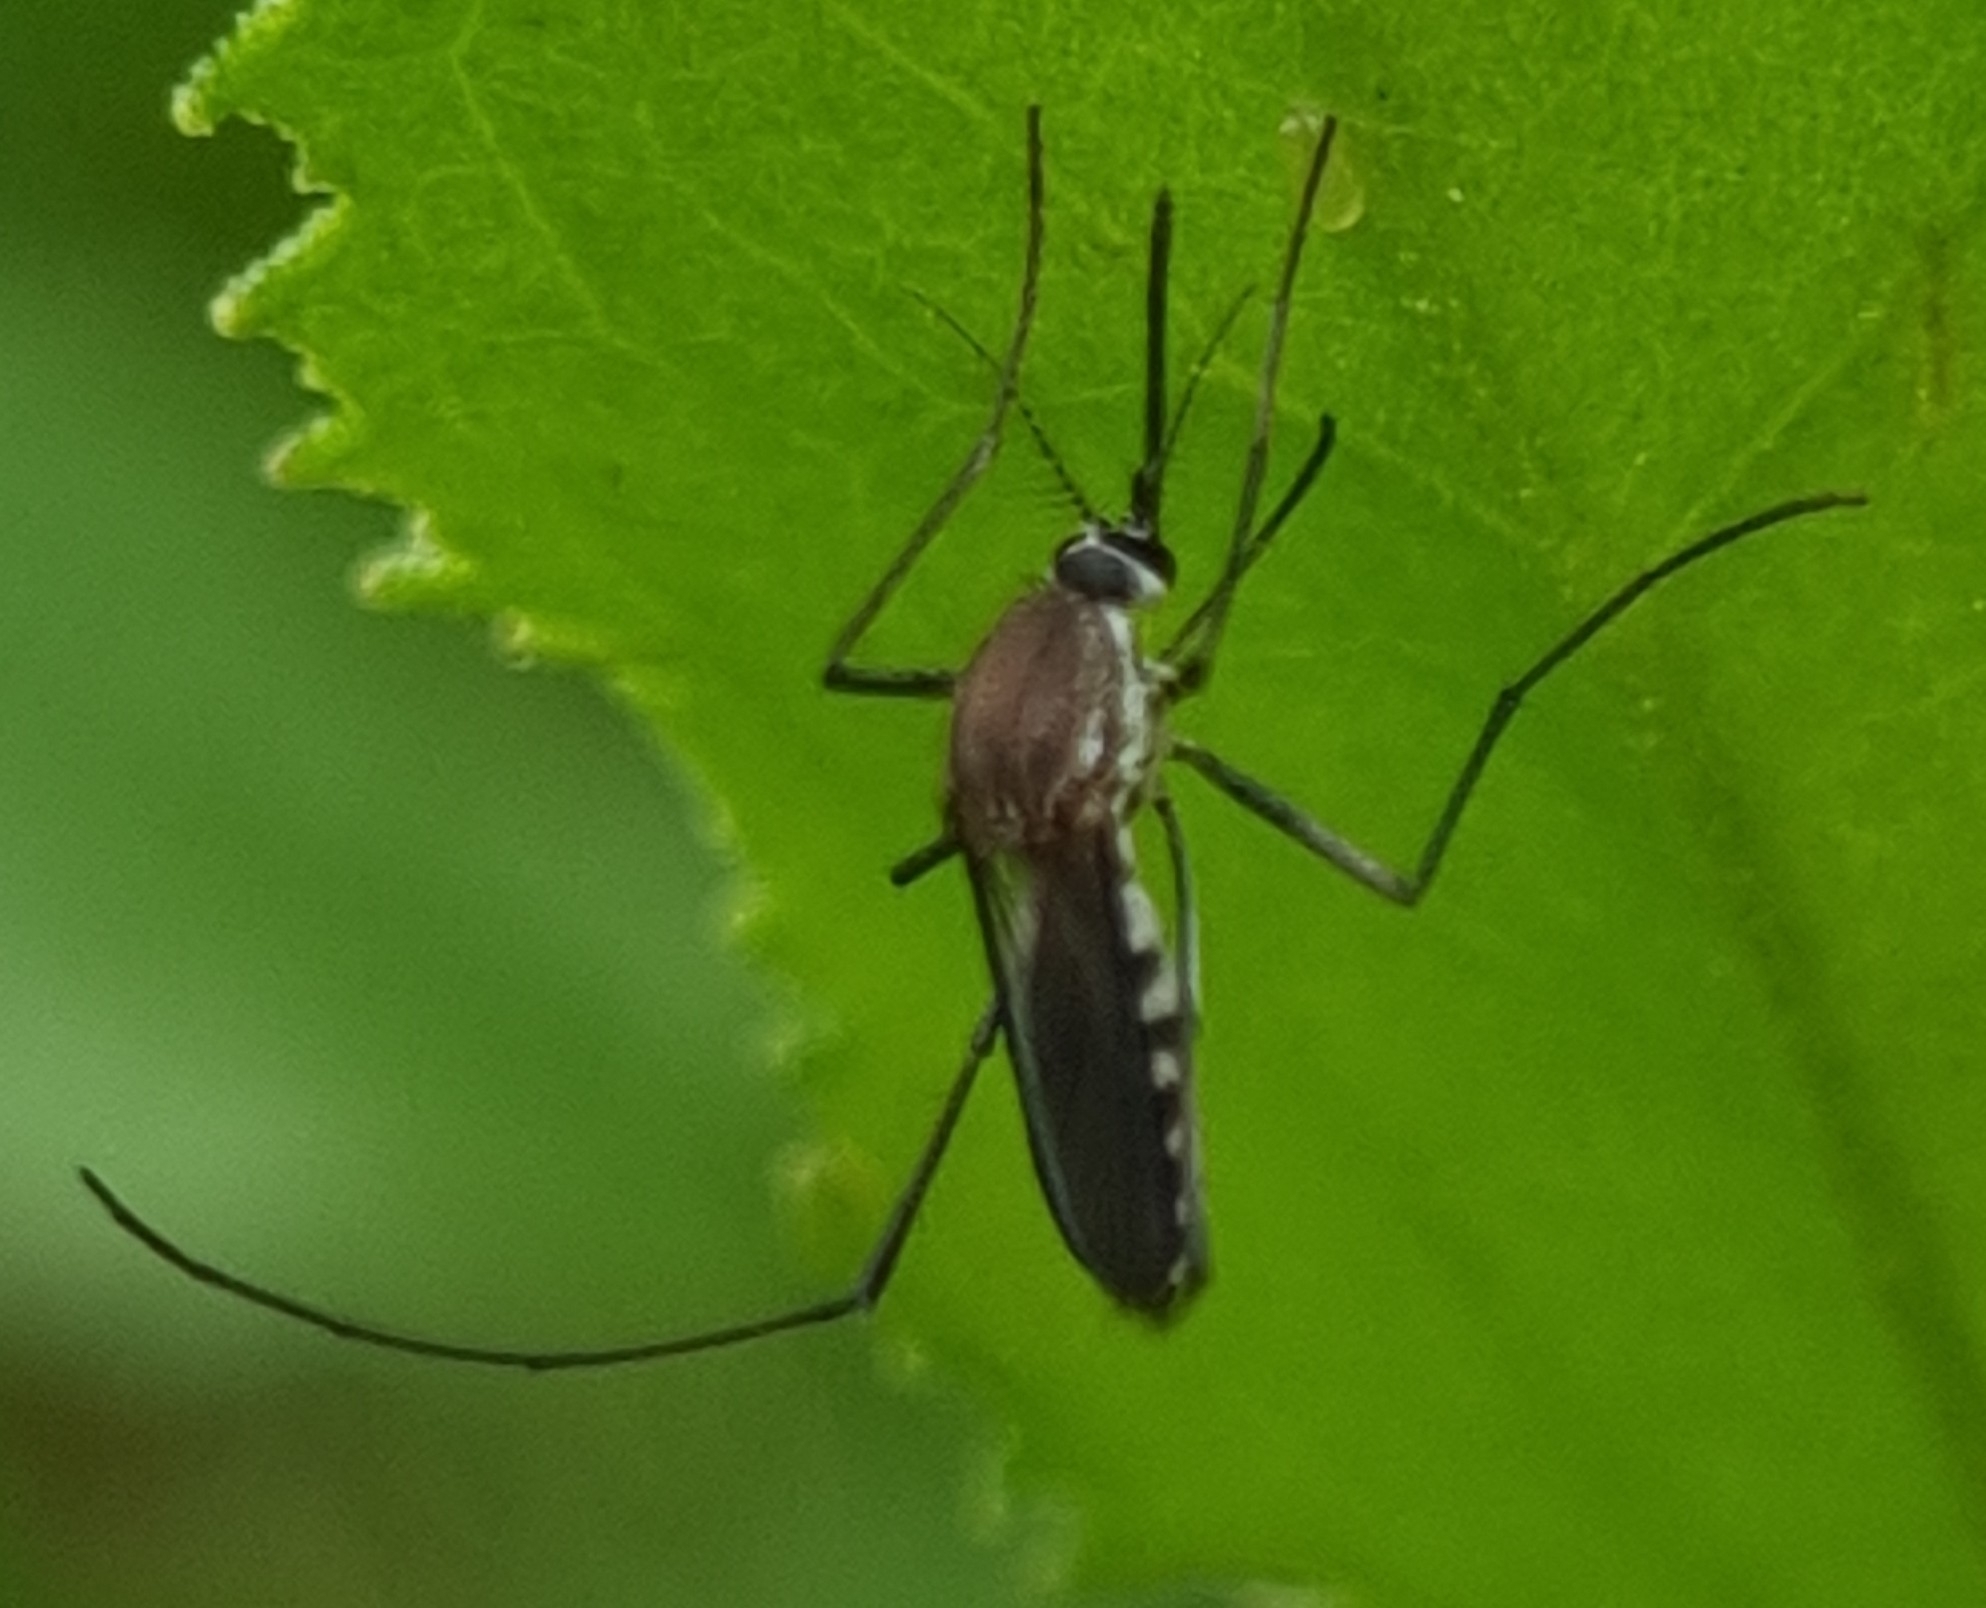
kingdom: Animalia
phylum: Arthropoda
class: Insecta
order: Diptera
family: Culicidae
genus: Tripteroides
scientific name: Tripteroides atripes
